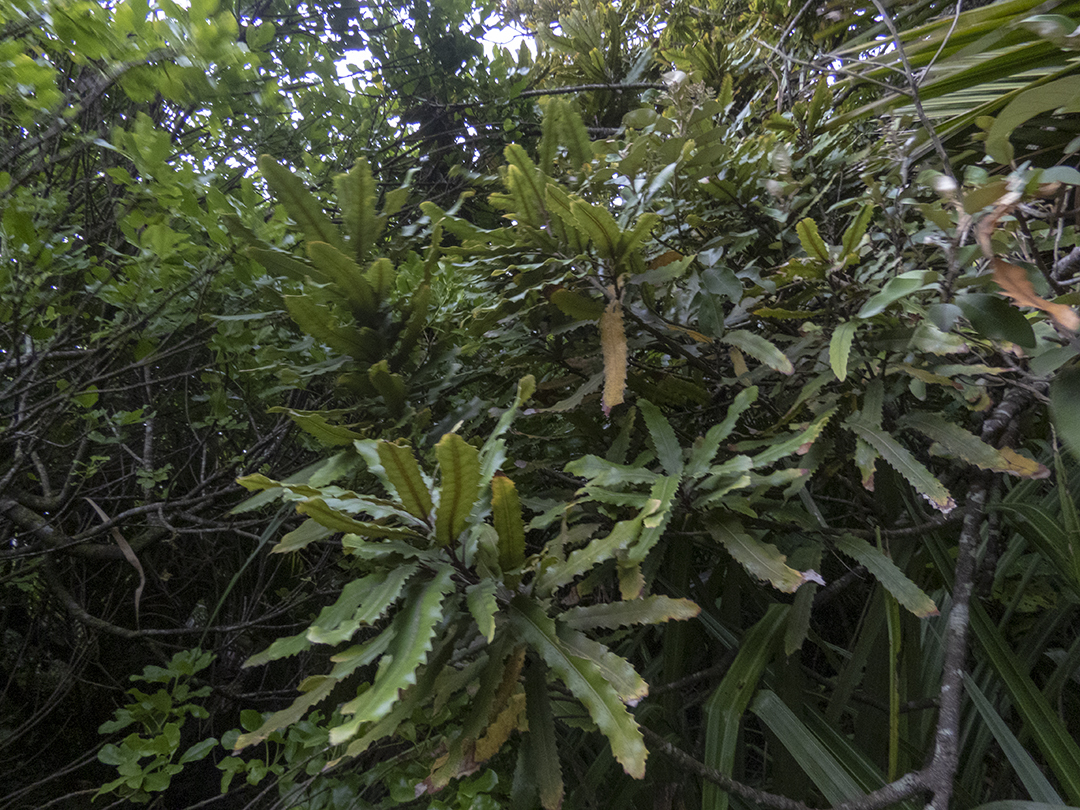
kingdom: Plantae
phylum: Tracheophyta
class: Magnoliopsida
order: Proteales
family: Proteaceae
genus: Knightia
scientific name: Knightia excelsa
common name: New zealand-honeysuckle
